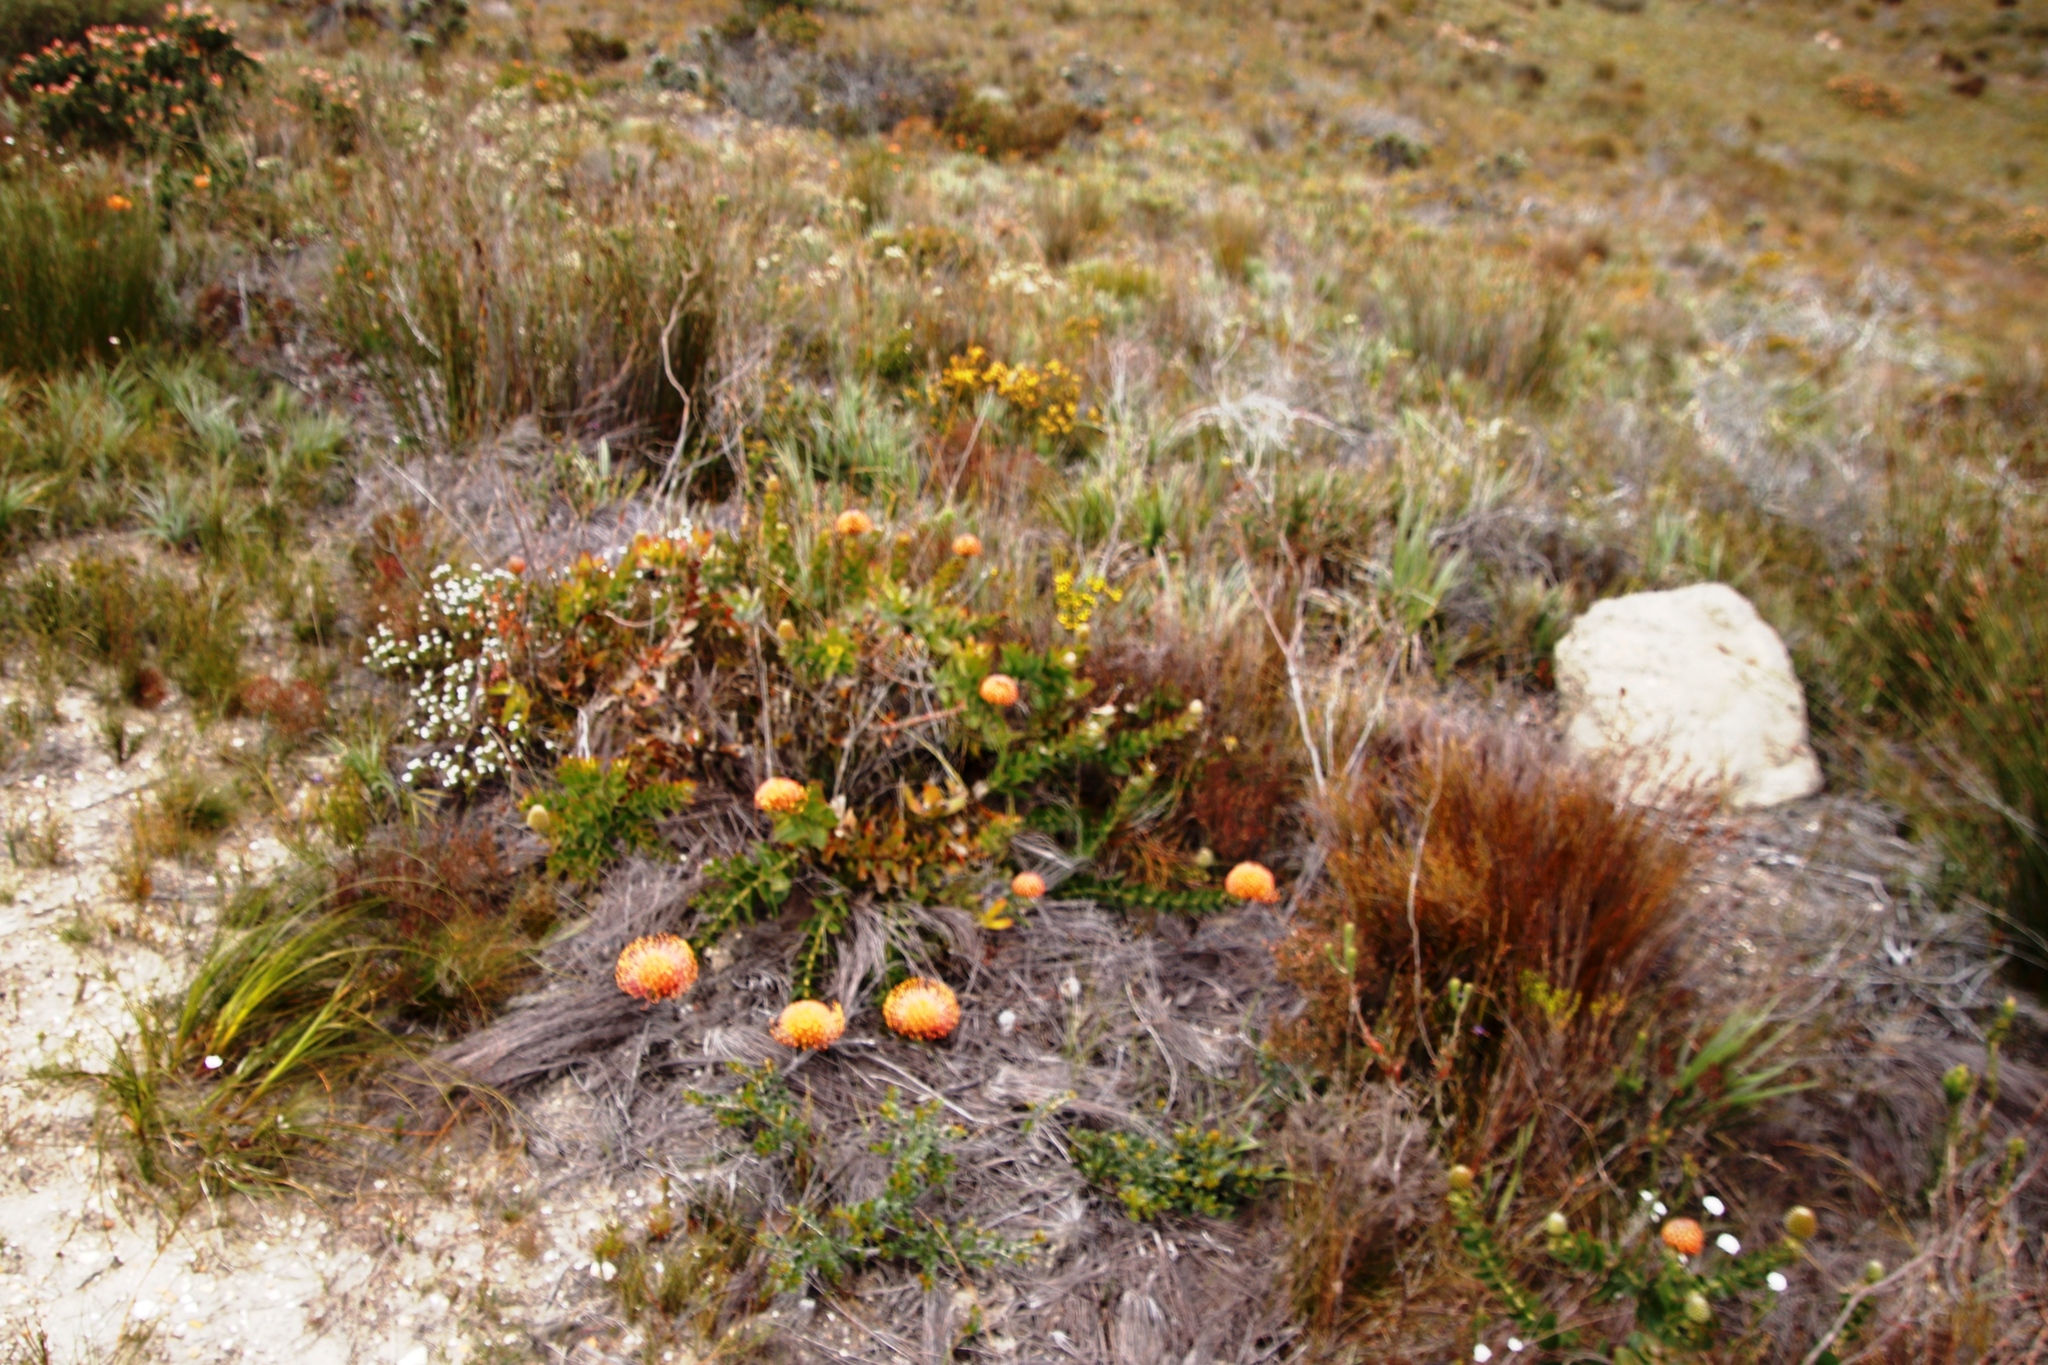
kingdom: Plantae
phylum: Tracheophyta
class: Magnoliopsida
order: Proteales
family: Proteaceae
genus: Leucospermum
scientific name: Leucospermum cordifolium
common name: Red pincushion-protea
